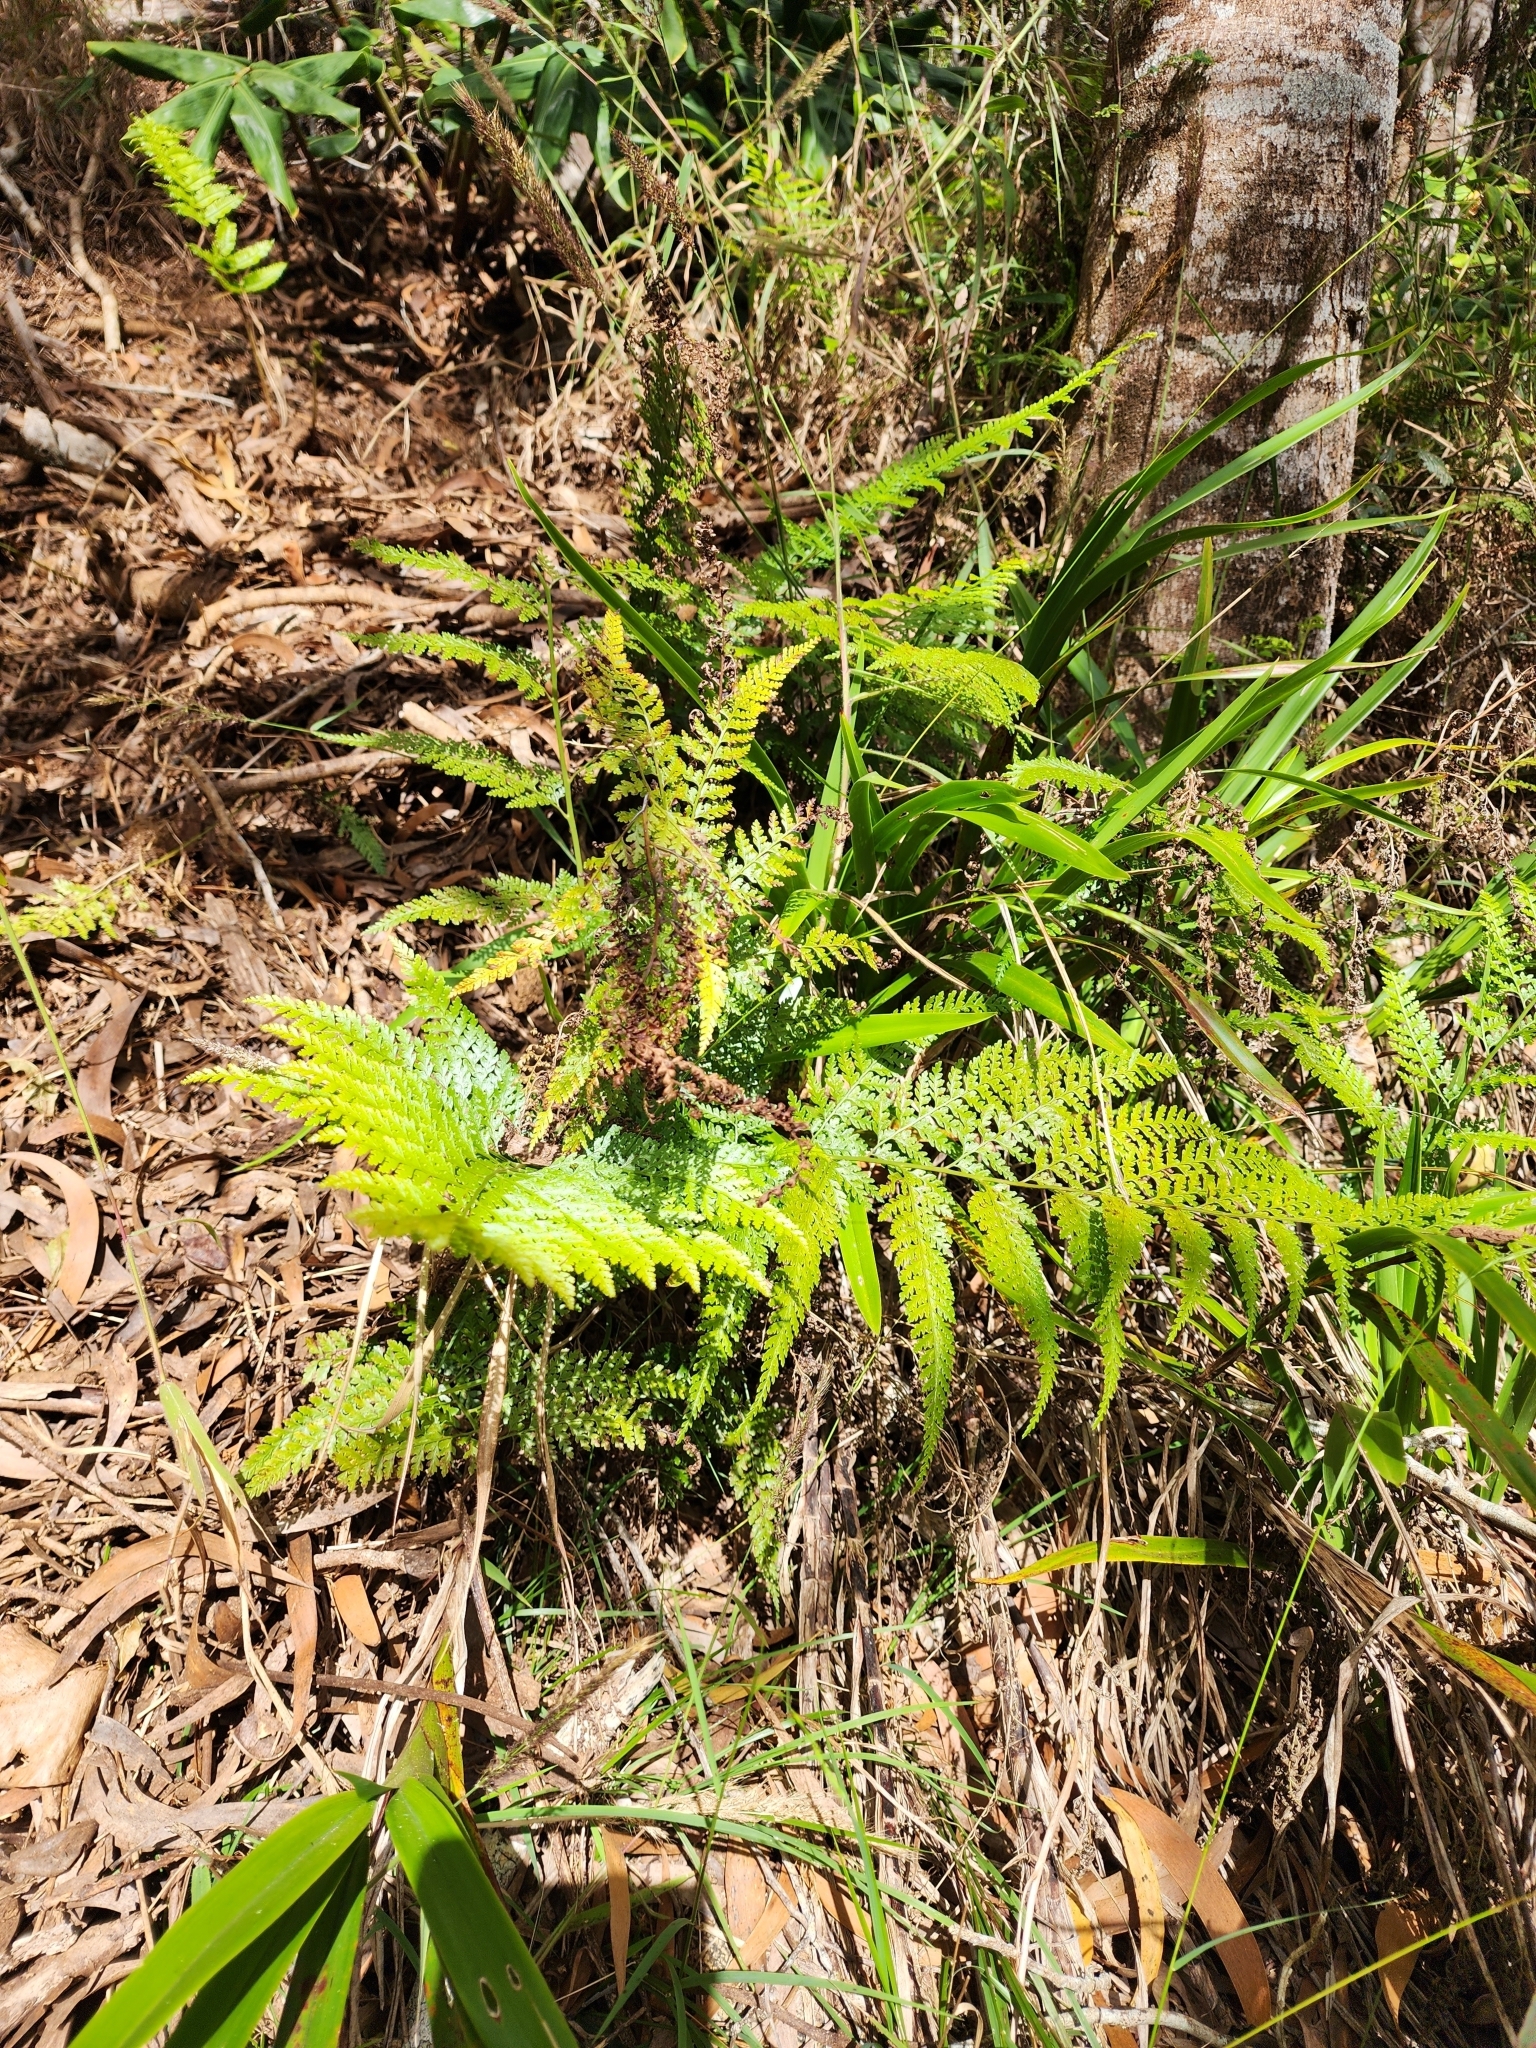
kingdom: Plantae
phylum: Tracheophyta
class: Polypodiopsida
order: Polypodiales
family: Dennstaedtiaceae
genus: Microlepia
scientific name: Microlepia setosa
